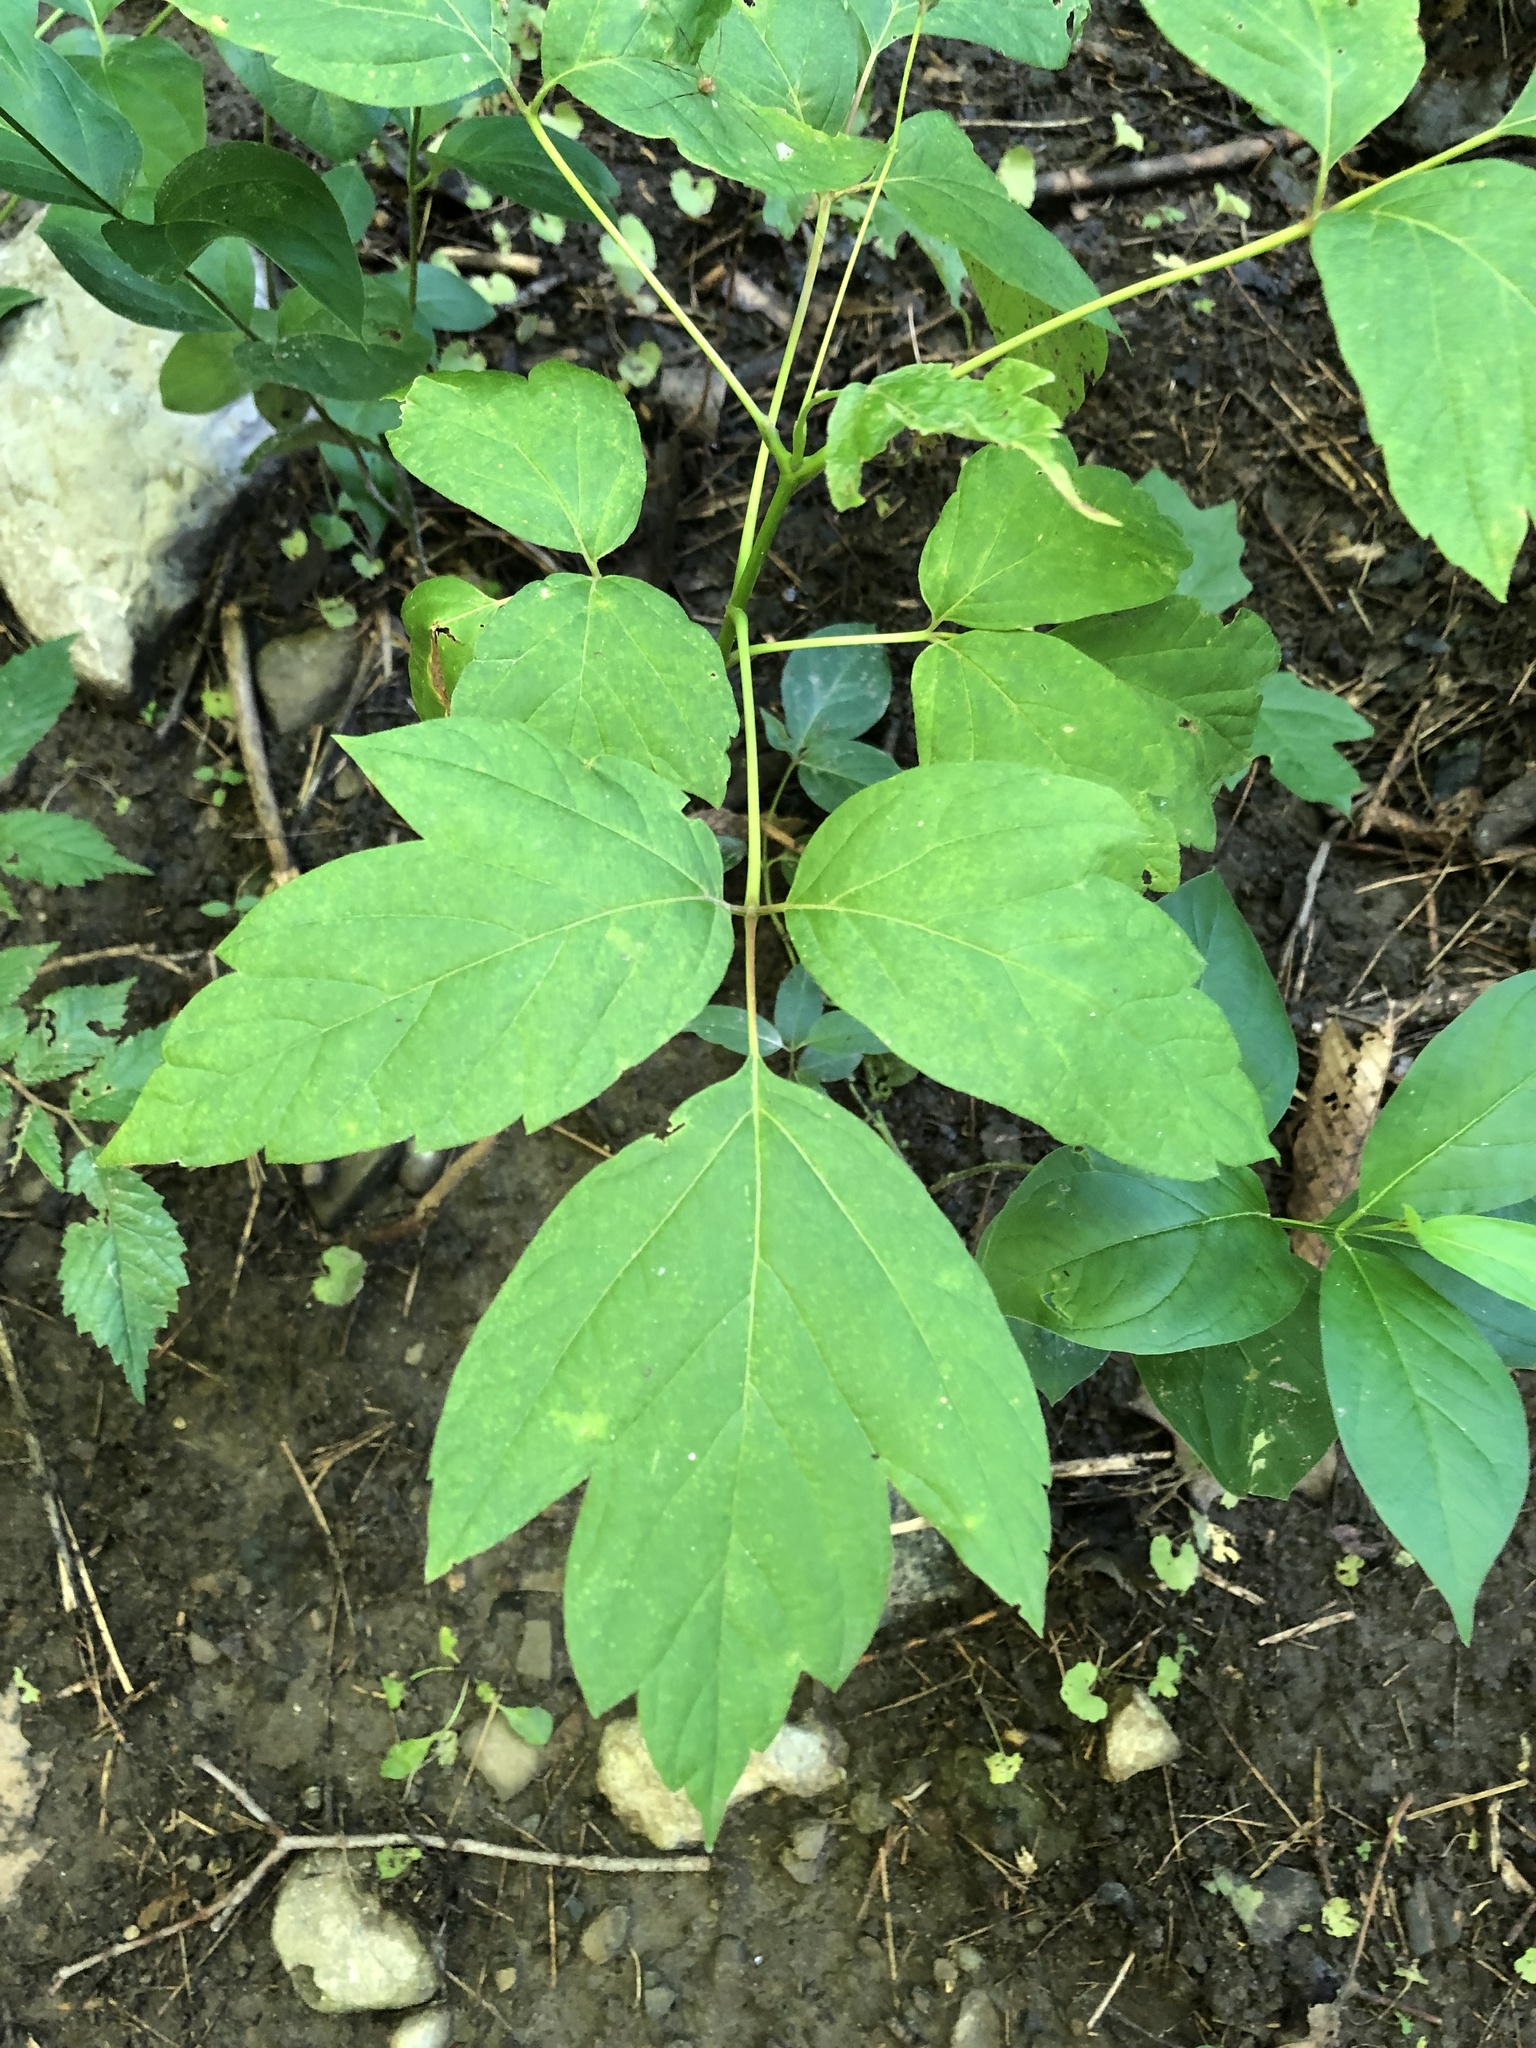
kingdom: Plantae
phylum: Tracheophyta
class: Magnoliopsida
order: Sapindales
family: Sapindaceae
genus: Acer
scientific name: Acer negundo
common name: Ashleaf maple
